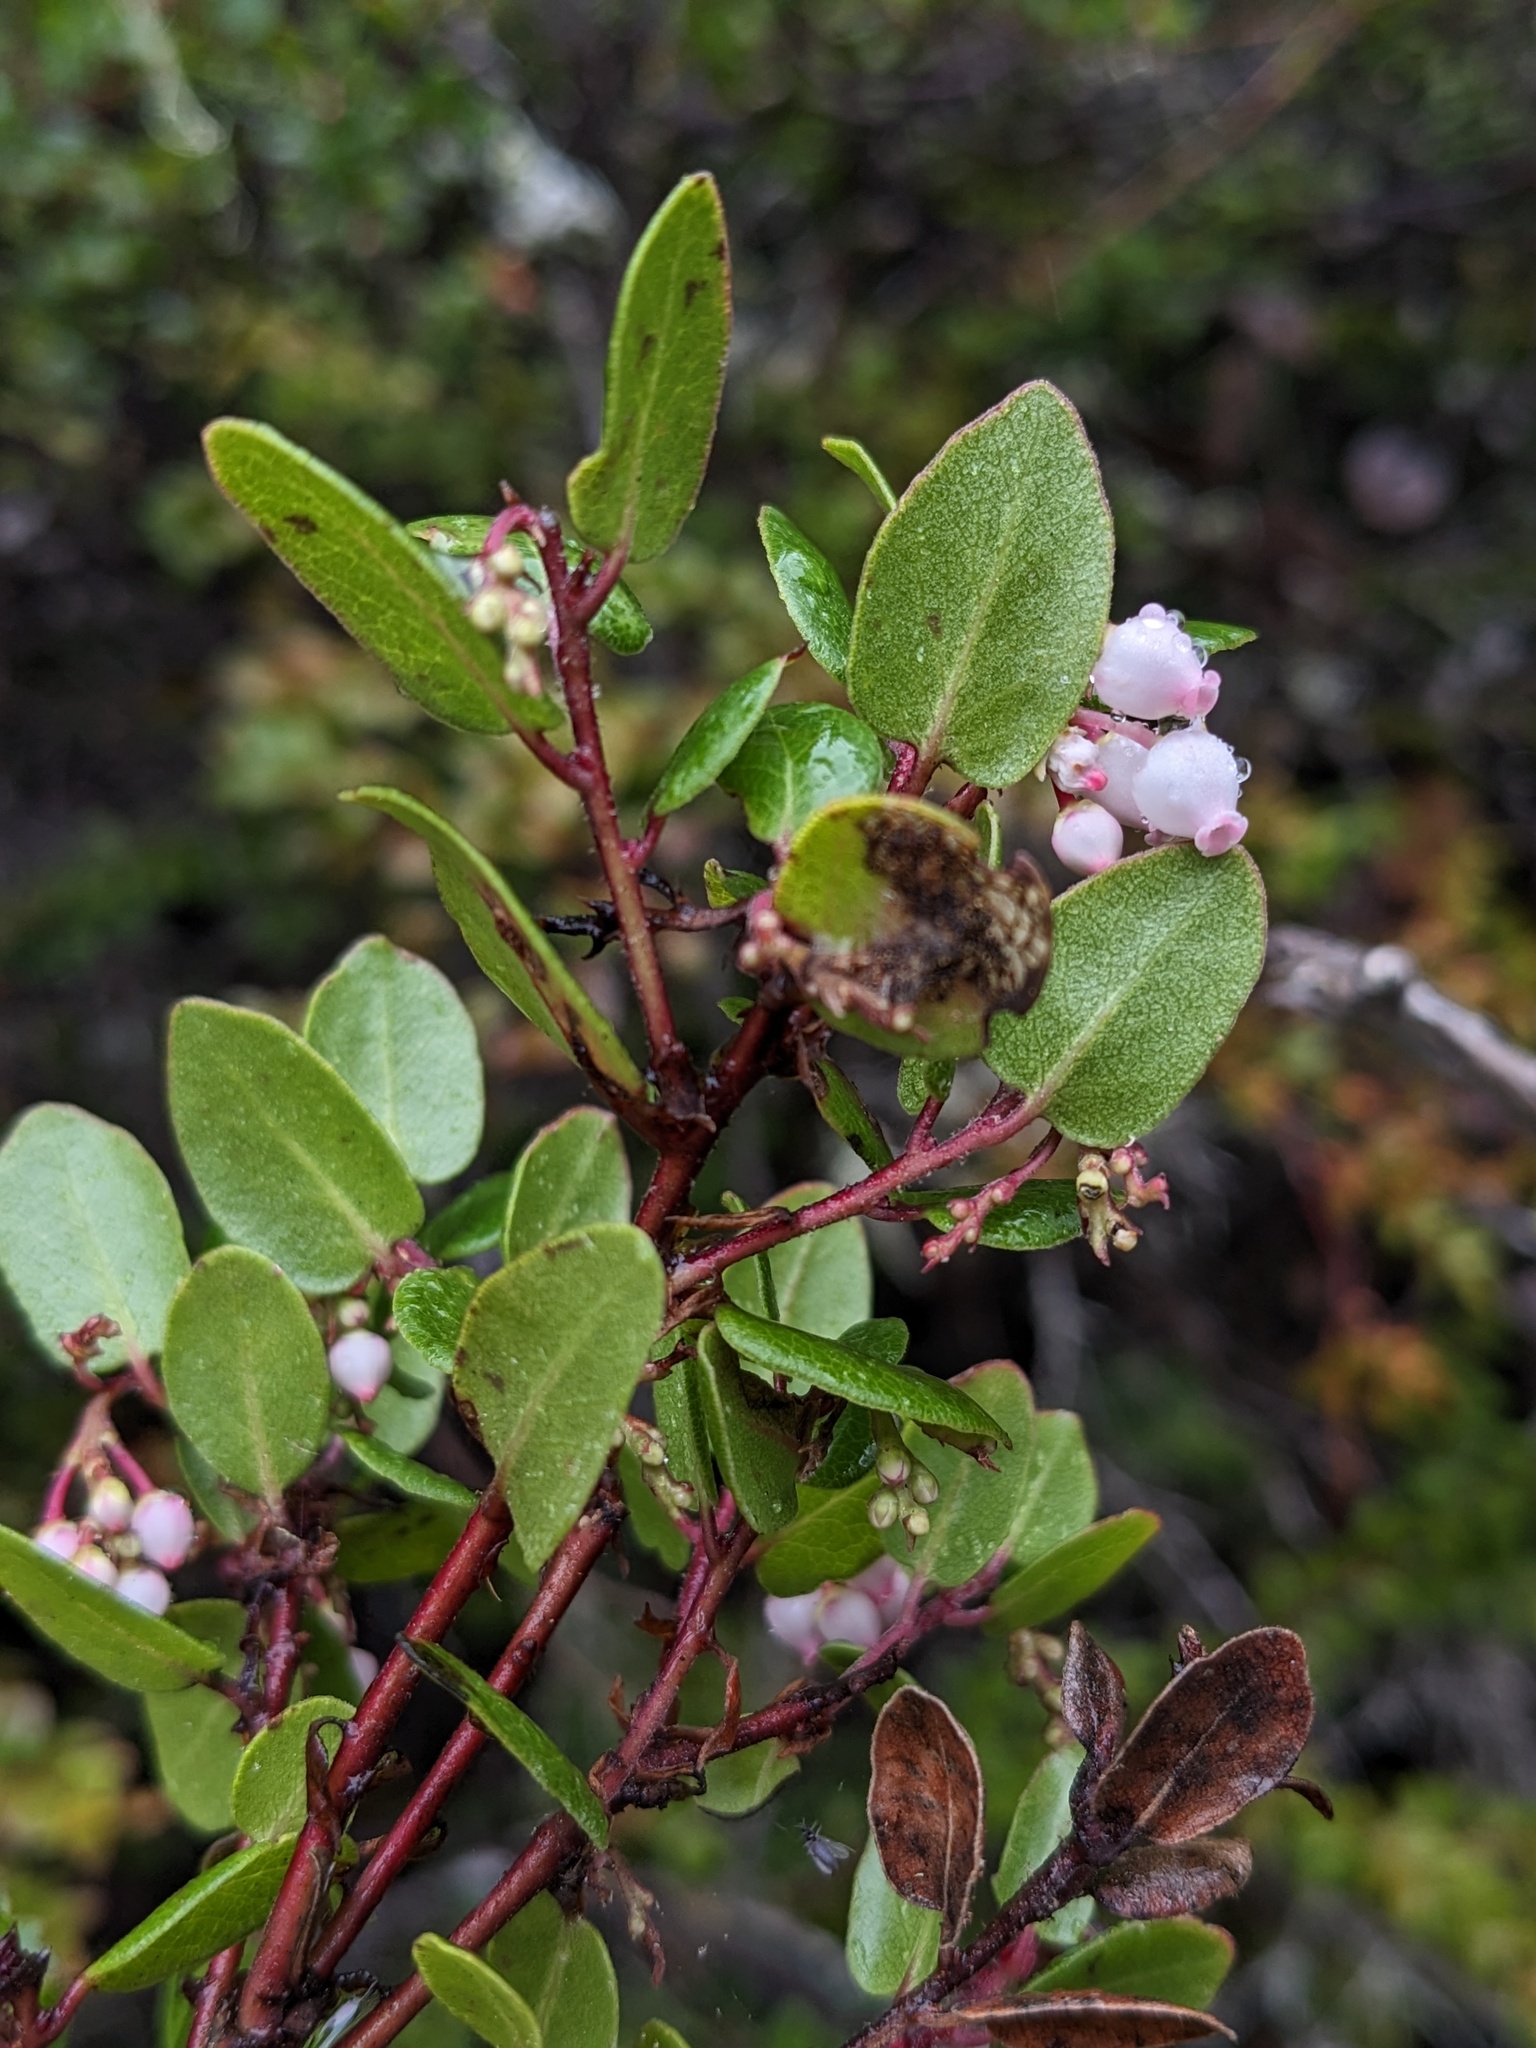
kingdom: Plantae
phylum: Tracheophyta
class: Magnoliopsida
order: Ericales
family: Ericaceae
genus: Arctostaphylos
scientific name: Arctostaphylos nummularia
